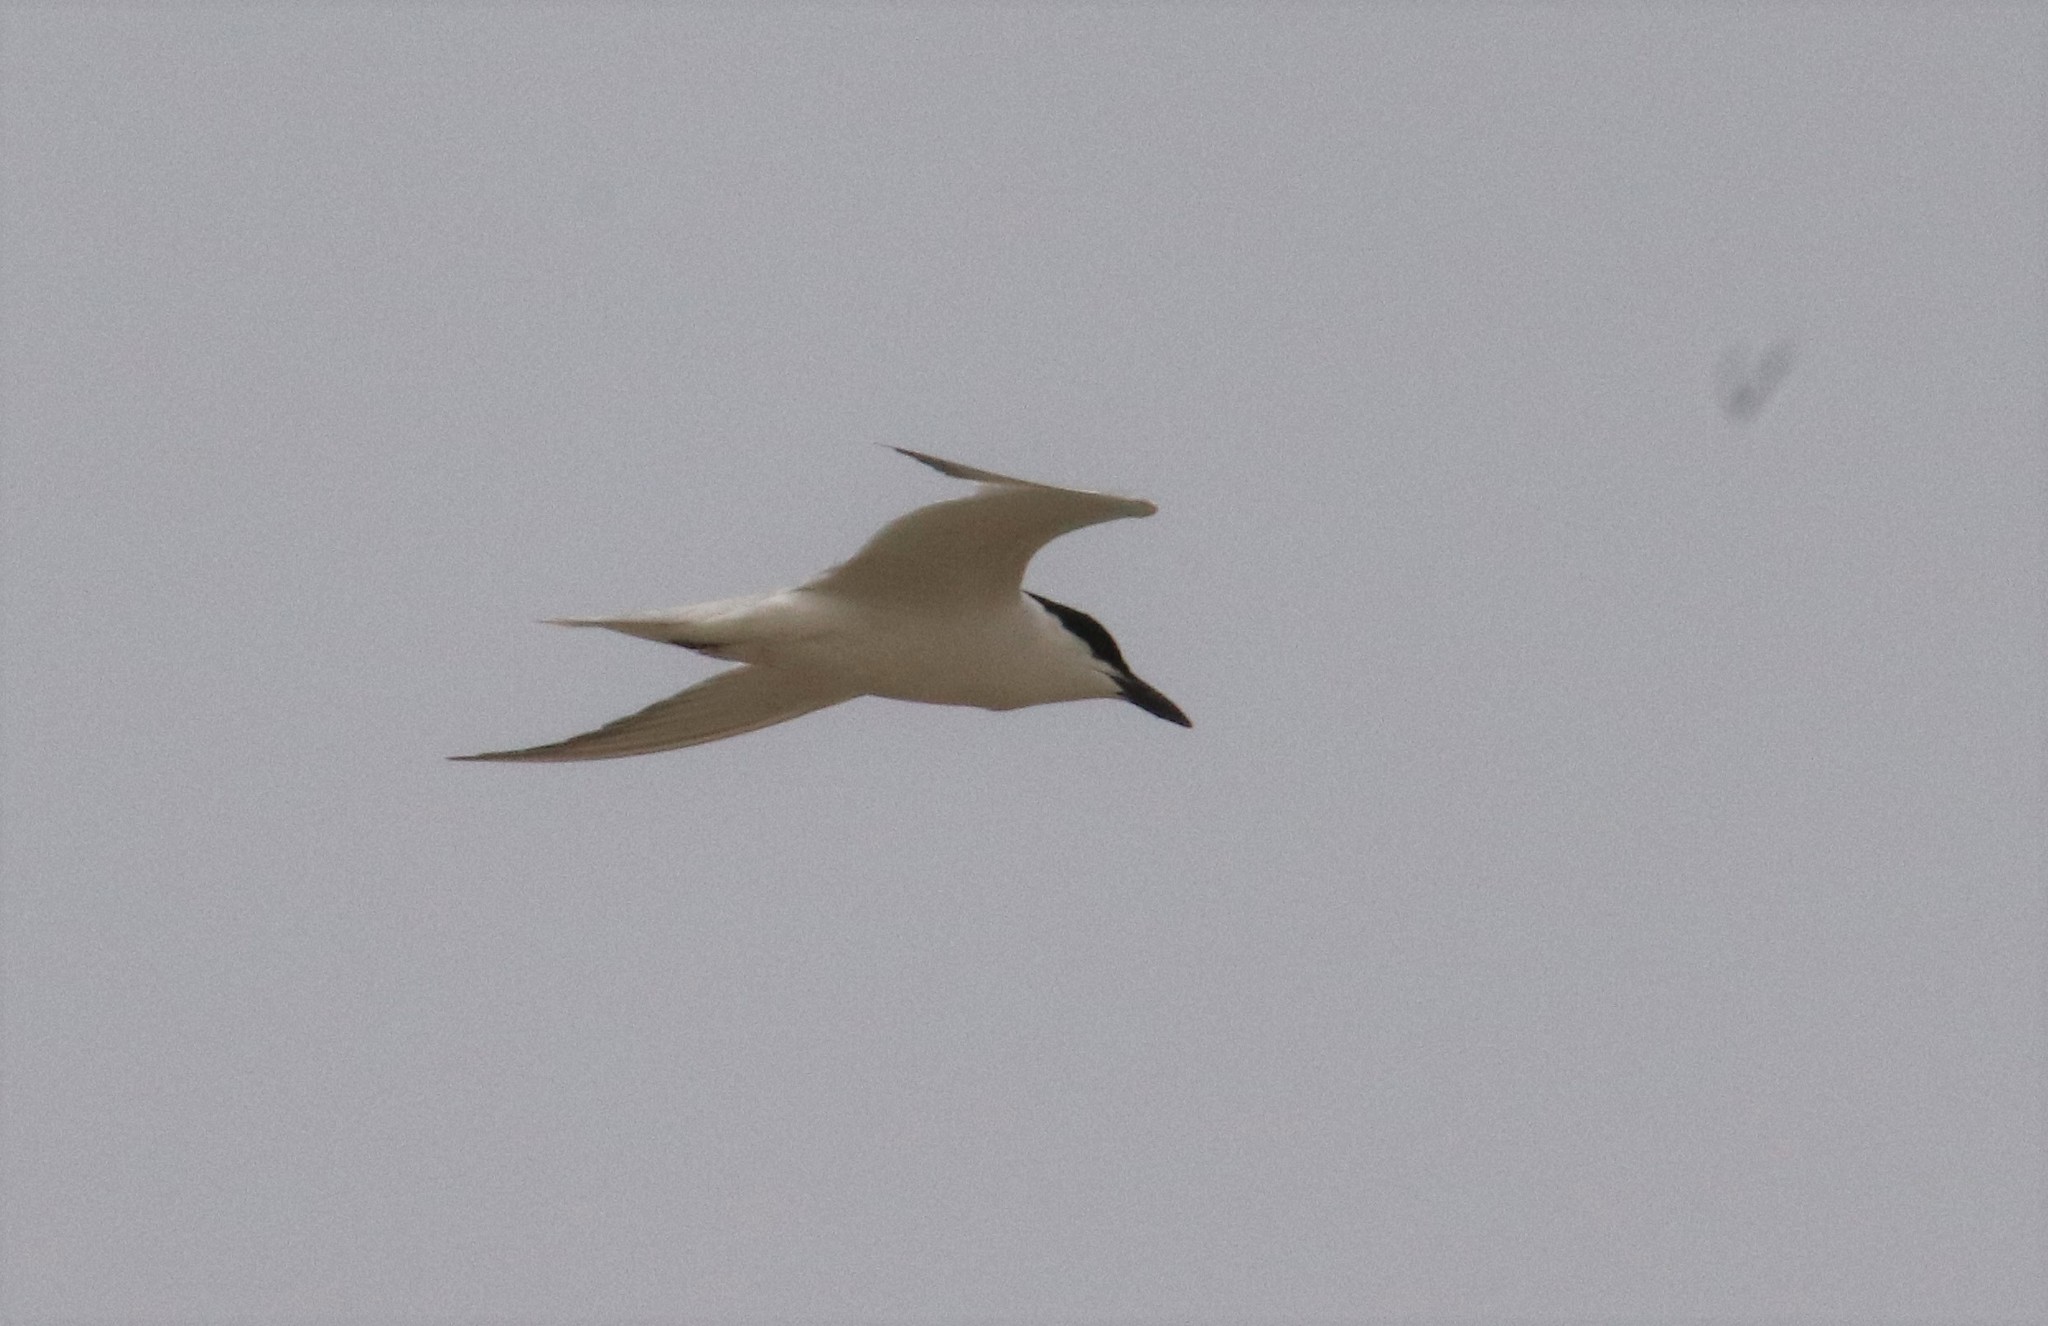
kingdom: Animalia
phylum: Chordata
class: Aves
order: Charadriiformes
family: Laridae
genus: Gelochelidon
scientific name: Gelochelidon nilotica
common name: Gull-billed tern
